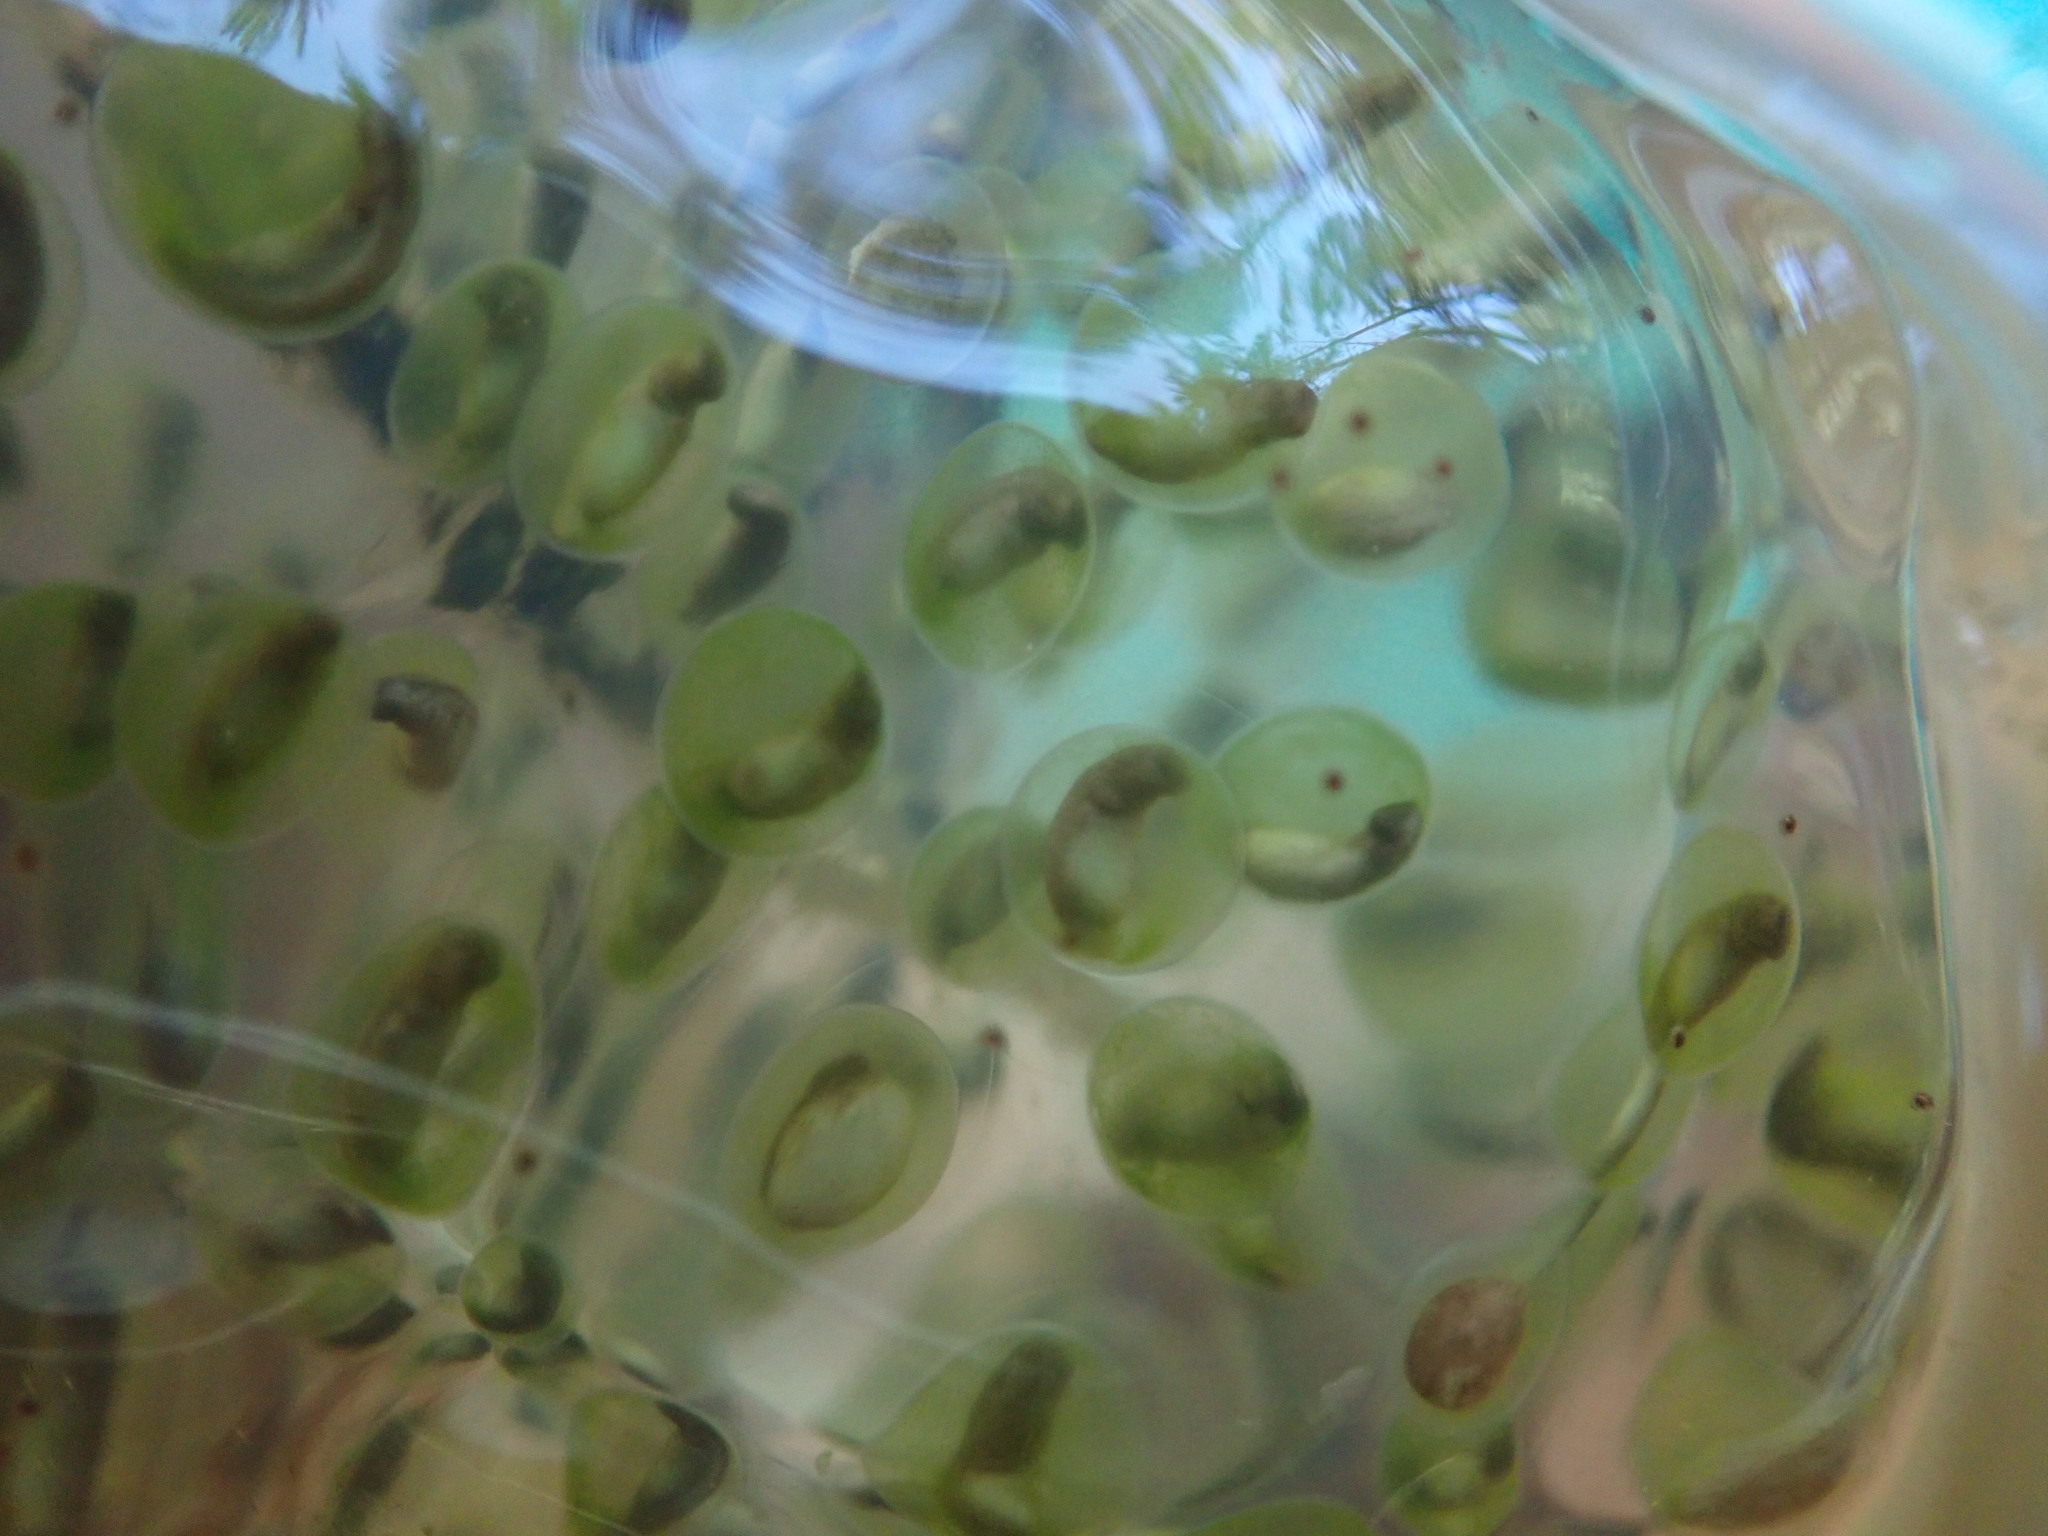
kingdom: Animalia
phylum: Chordata
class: Amphibia
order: Caudata
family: Ambystomatidae
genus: Ambystoma
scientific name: Ambystoma gracile
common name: Northwestern salamander
